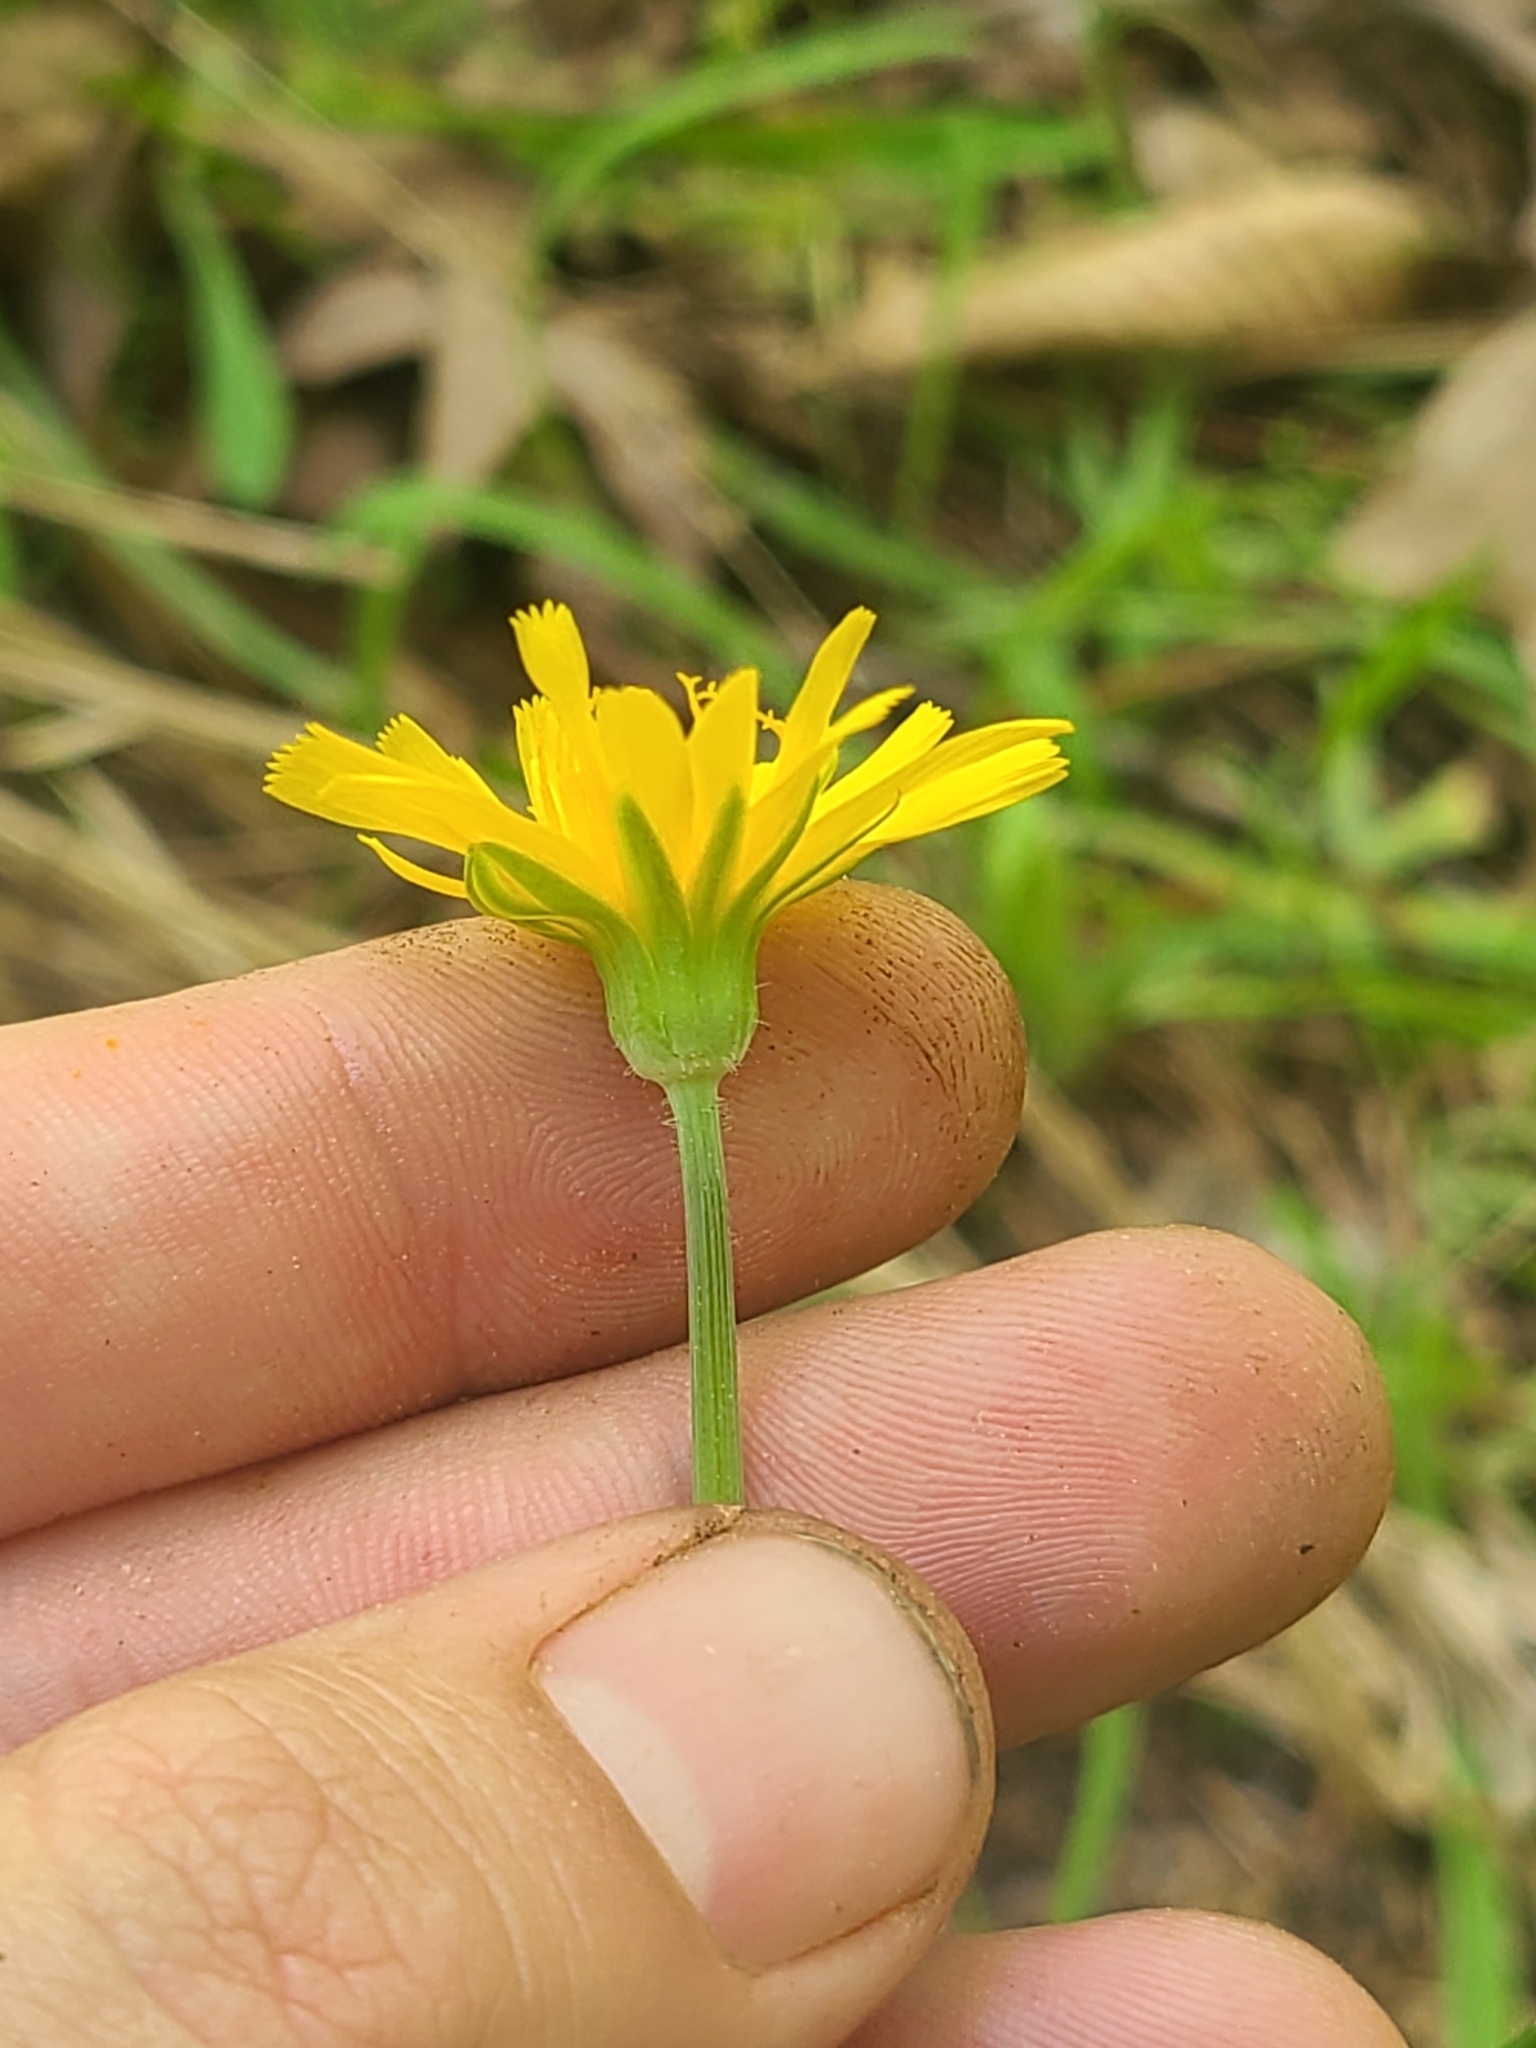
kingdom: Plantae
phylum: Tracheophyta
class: Magnoliopsida
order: Asterales
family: Asteraceae
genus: Krigia
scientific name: Krigia dandelion
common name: Colonial dwarf-dandelion
